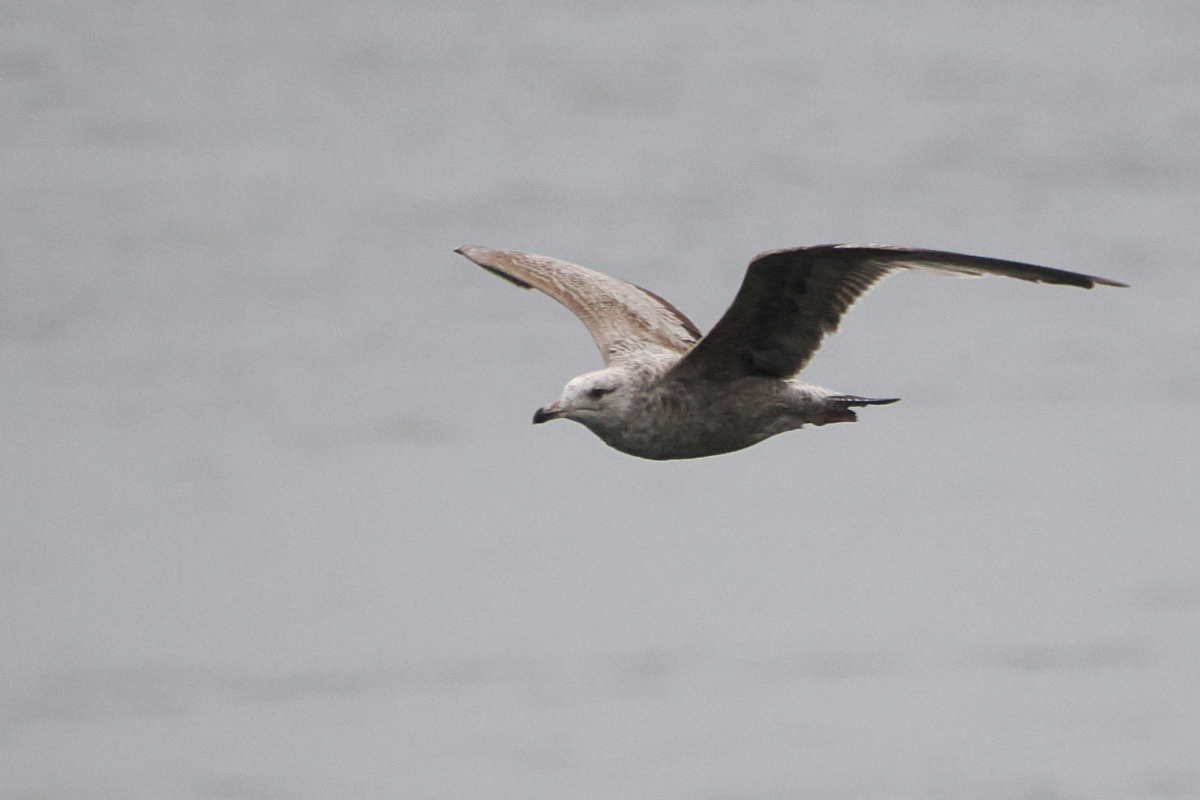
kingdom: Animalia
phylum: Chordata
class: Aves
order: Charadriiformes
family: Laridae
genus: Larus
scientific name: Larus argentatus
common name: Herring gull
